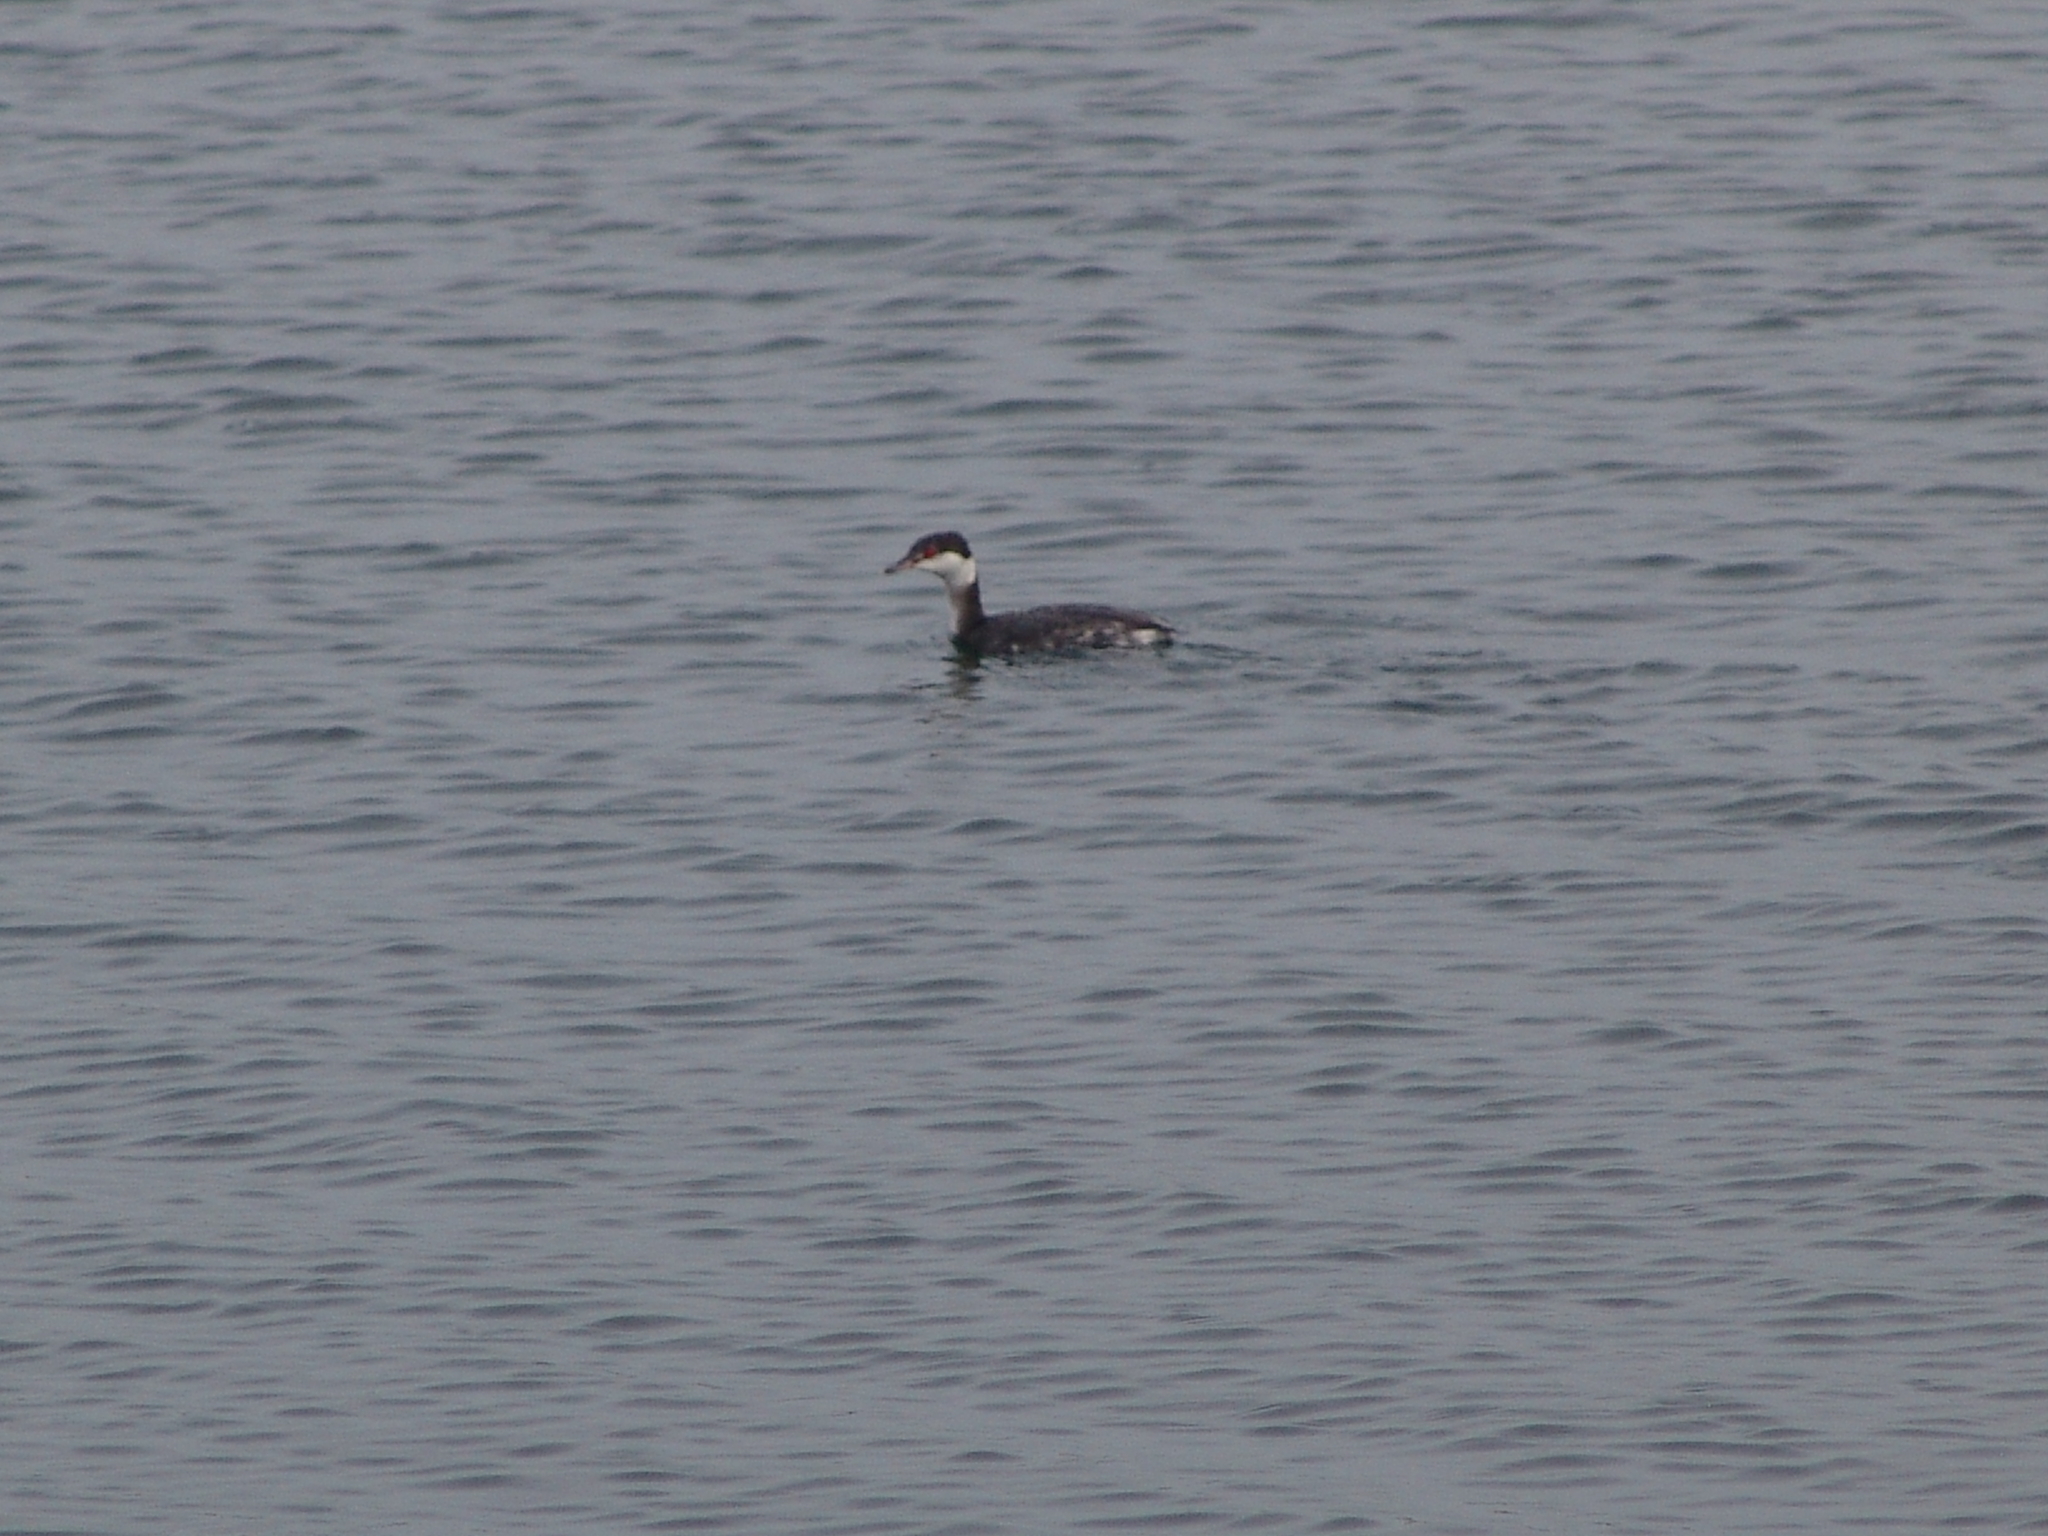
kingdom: Animalia
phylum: Chordata
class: Aves
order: Podicipediformes
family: Podicipedidae
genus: Podiceps
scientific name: Podiceps auritus
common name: Horned grebe
